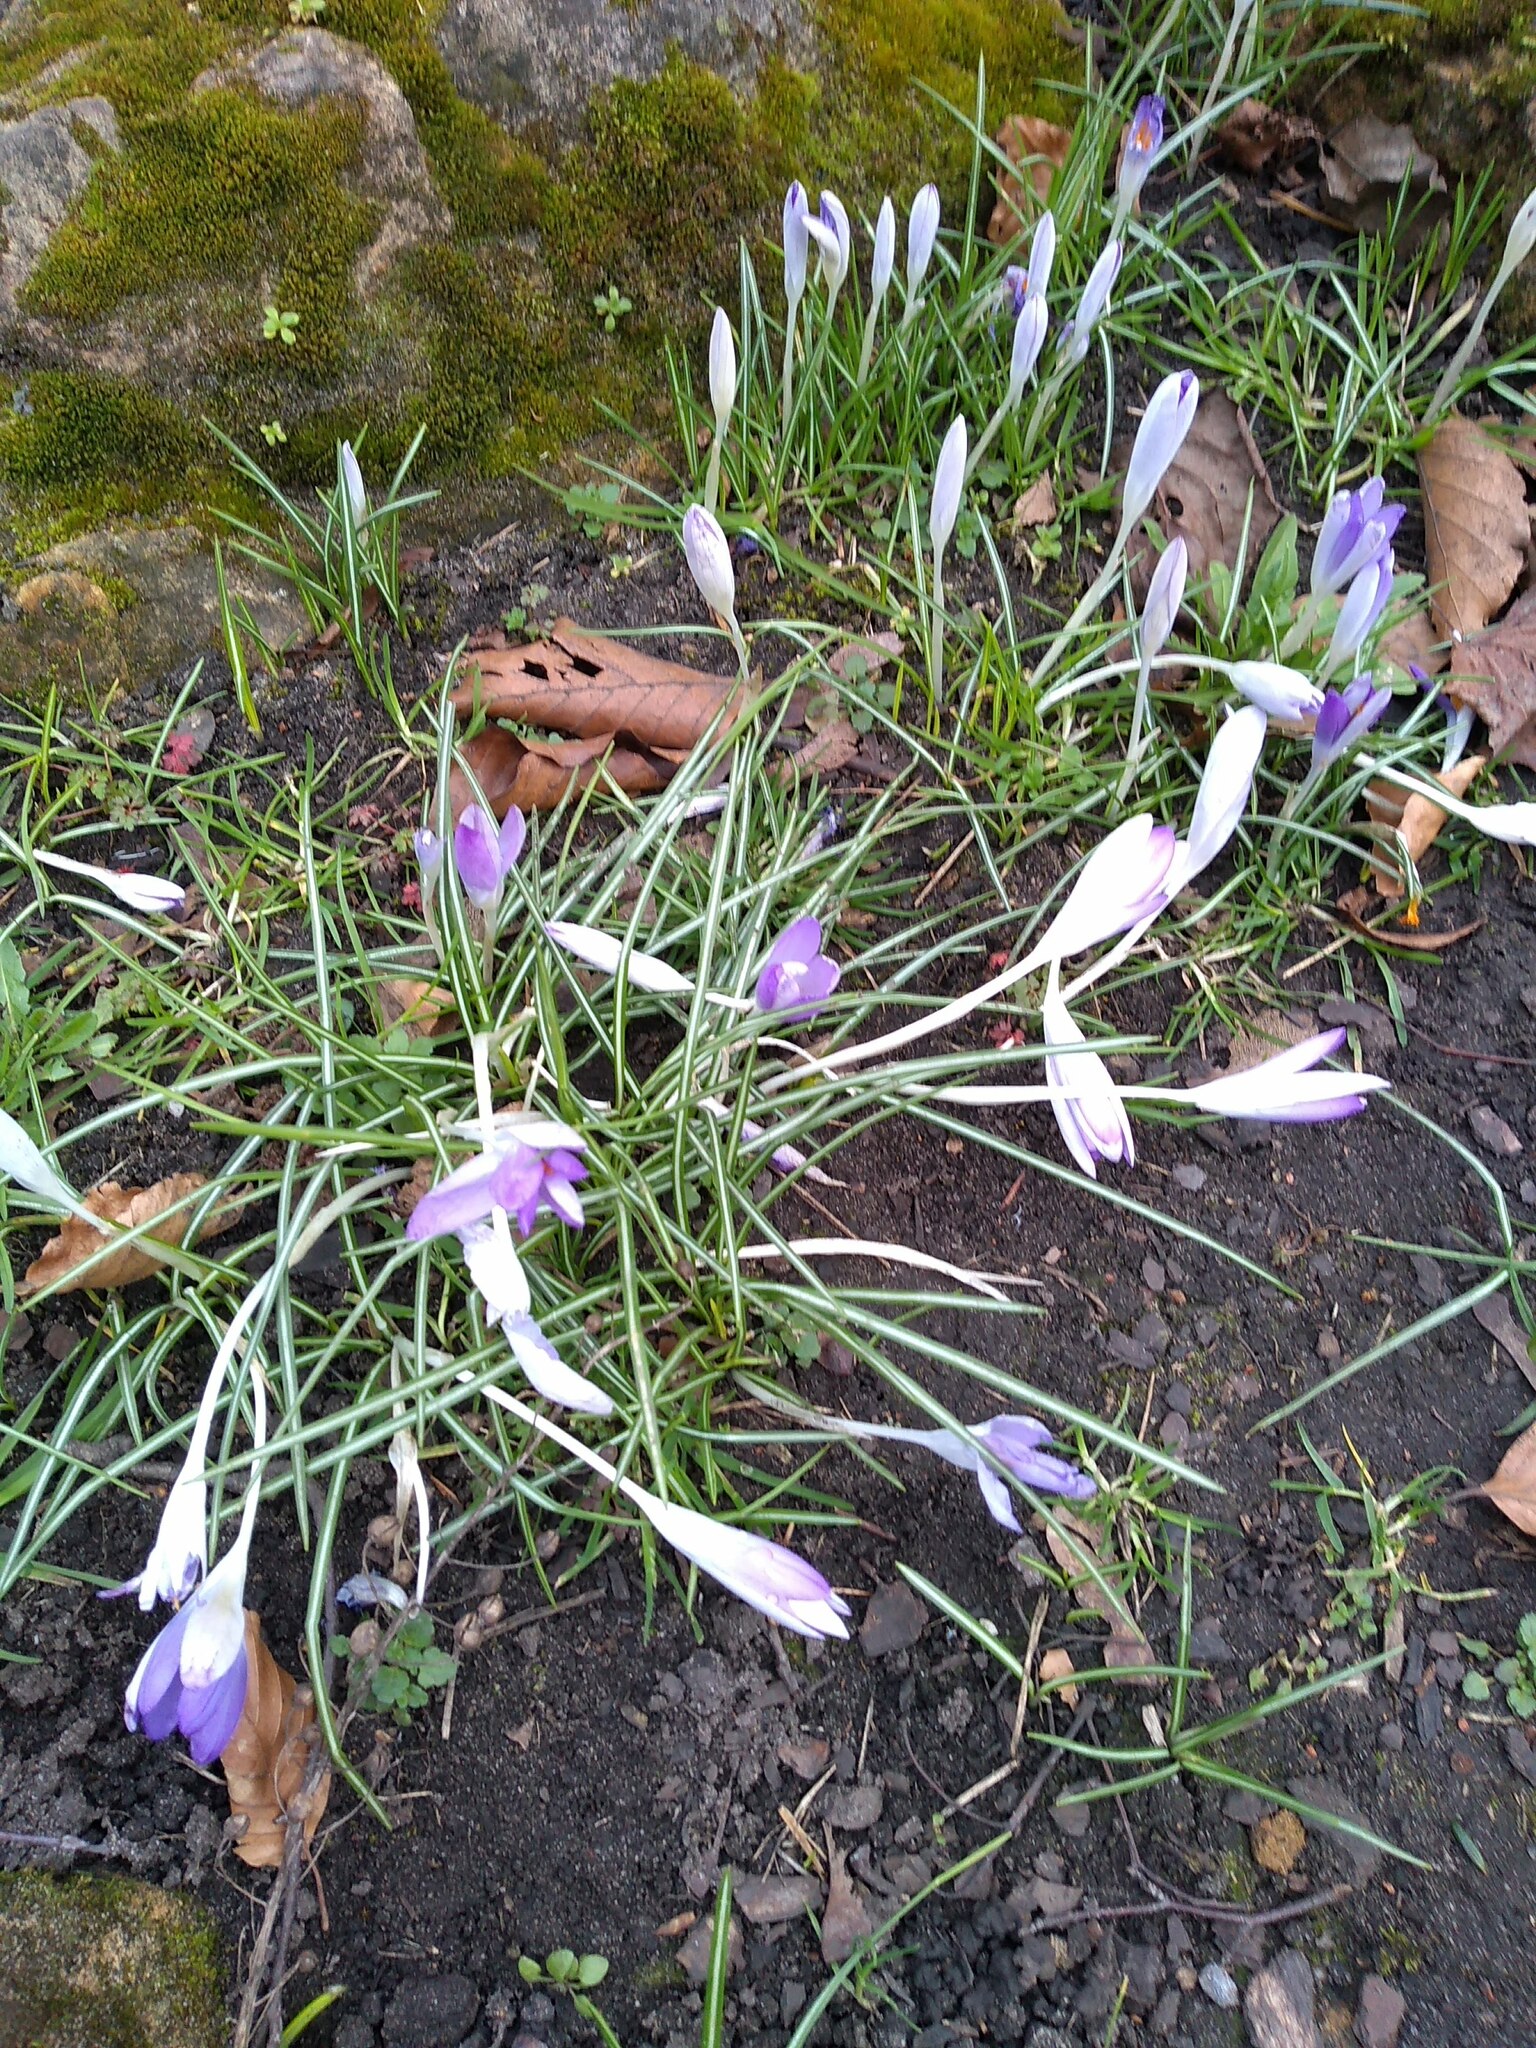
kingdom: Plantae
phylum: Tracheophyta
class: Liliopsida
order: Asparagales
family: Iridaceae
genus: Crocus
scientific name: Crocus tommasinianus
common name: Early crocus
